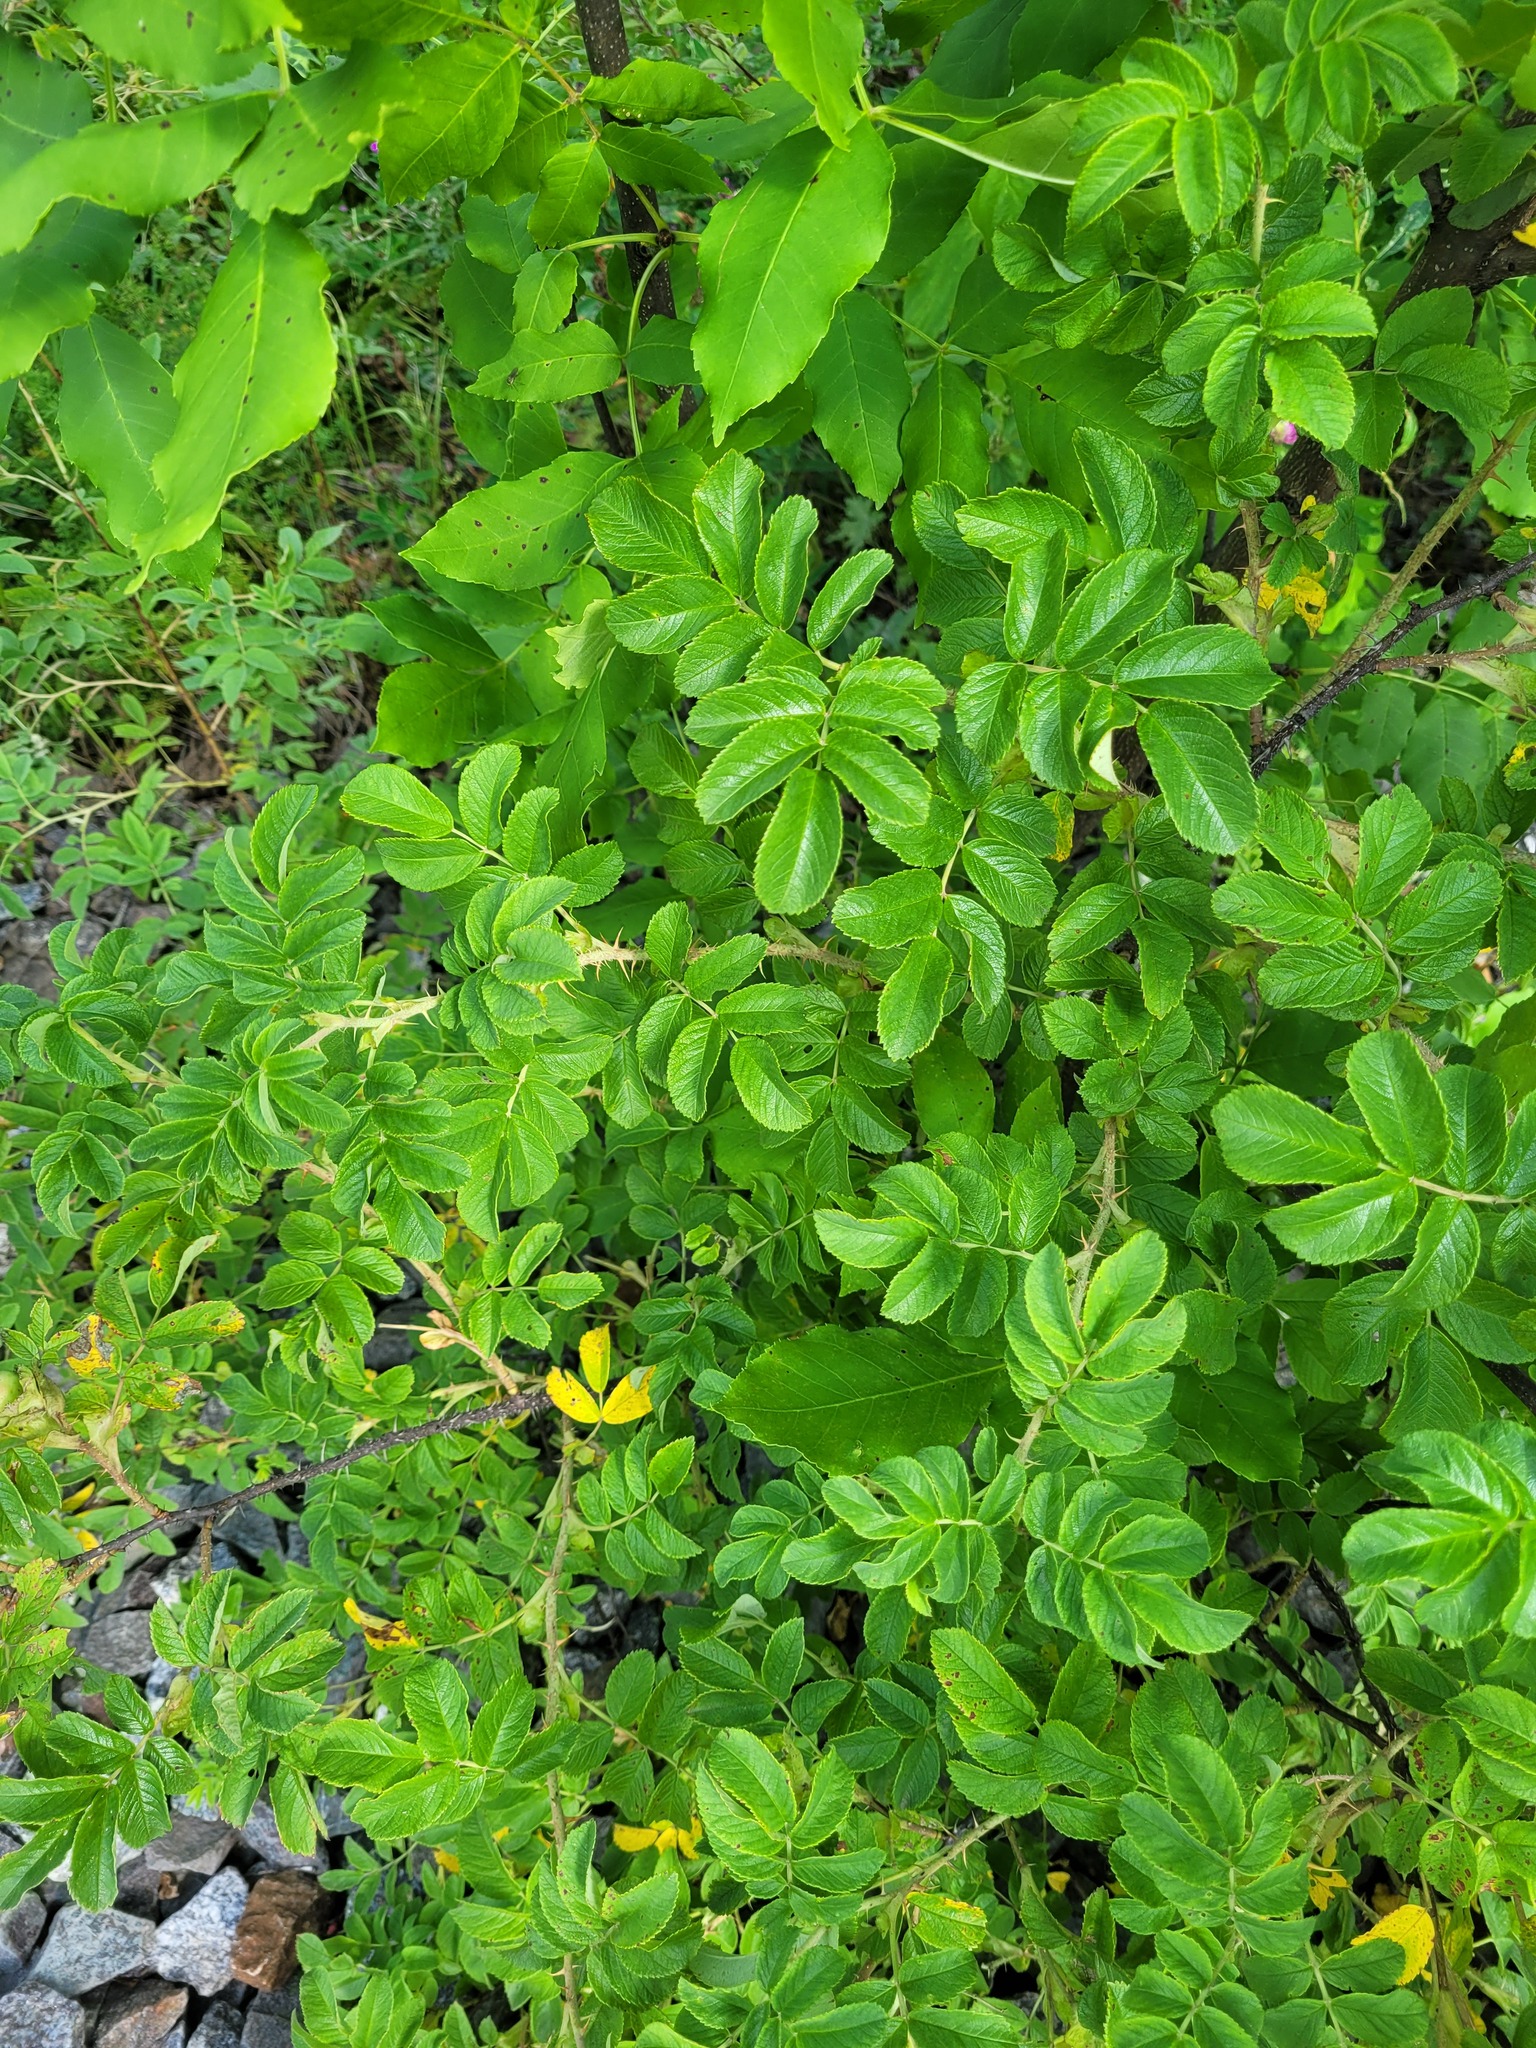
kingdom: Plantae
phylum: Tracheophyta
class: Magnoliopsida
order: Rosales
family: Rosaceae
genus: Rosa
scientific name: Rosa rugosa
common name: Japanese rose
